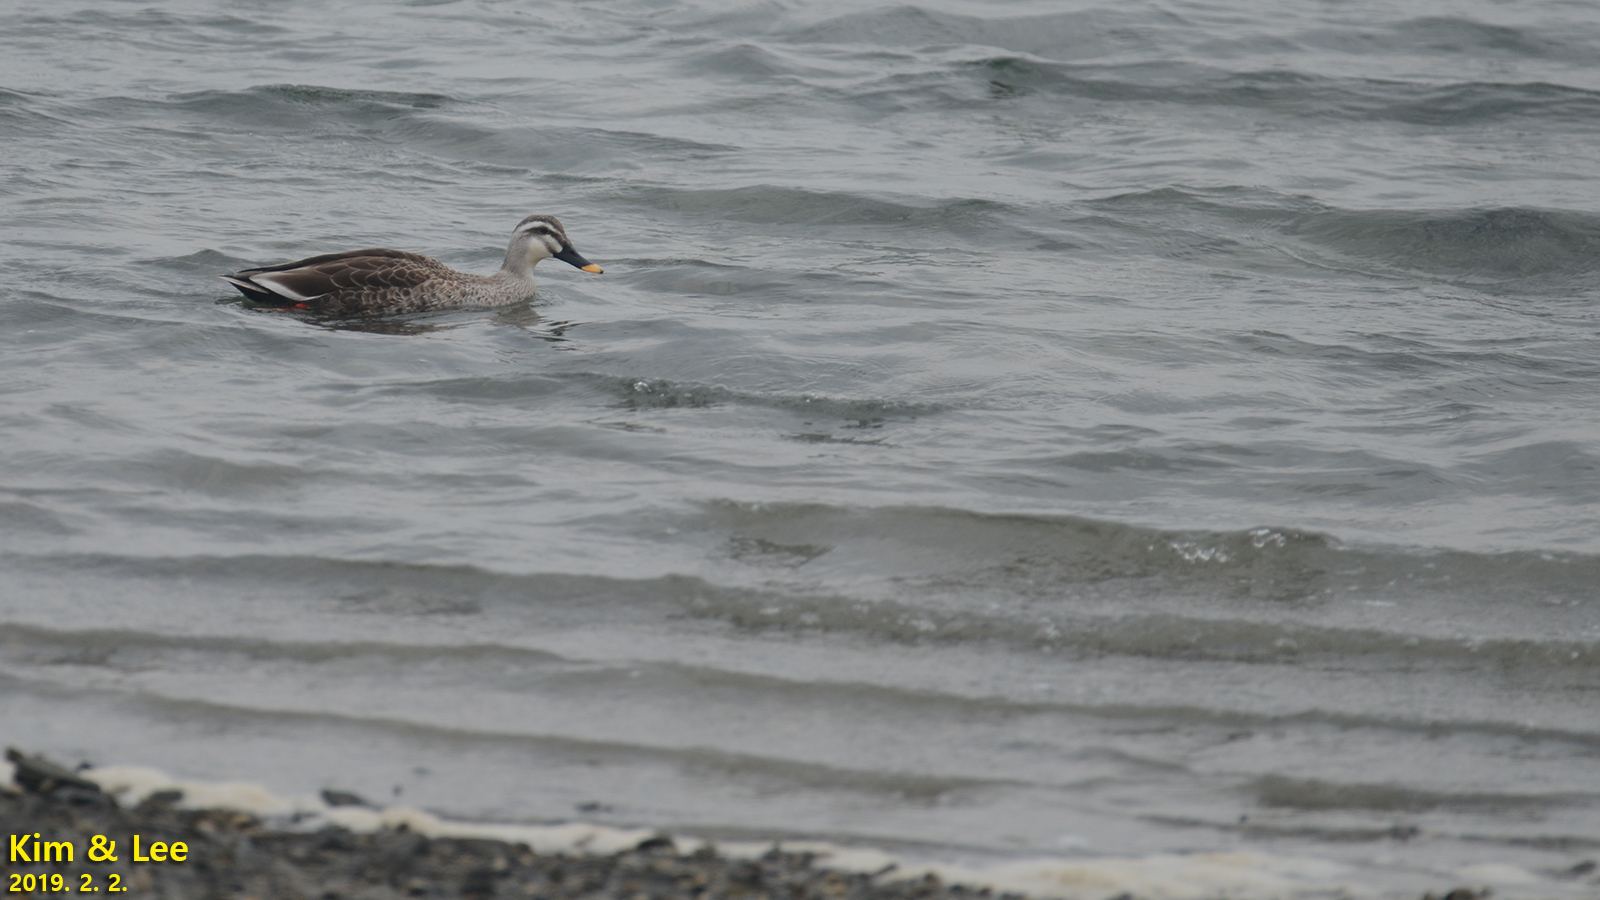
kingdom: Animalia
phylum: Chordata
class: Aves
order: Anseriformes
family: Anatidae
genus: Anas
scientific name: Anas zonorhyncha
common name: Eastern spot-billed duck
